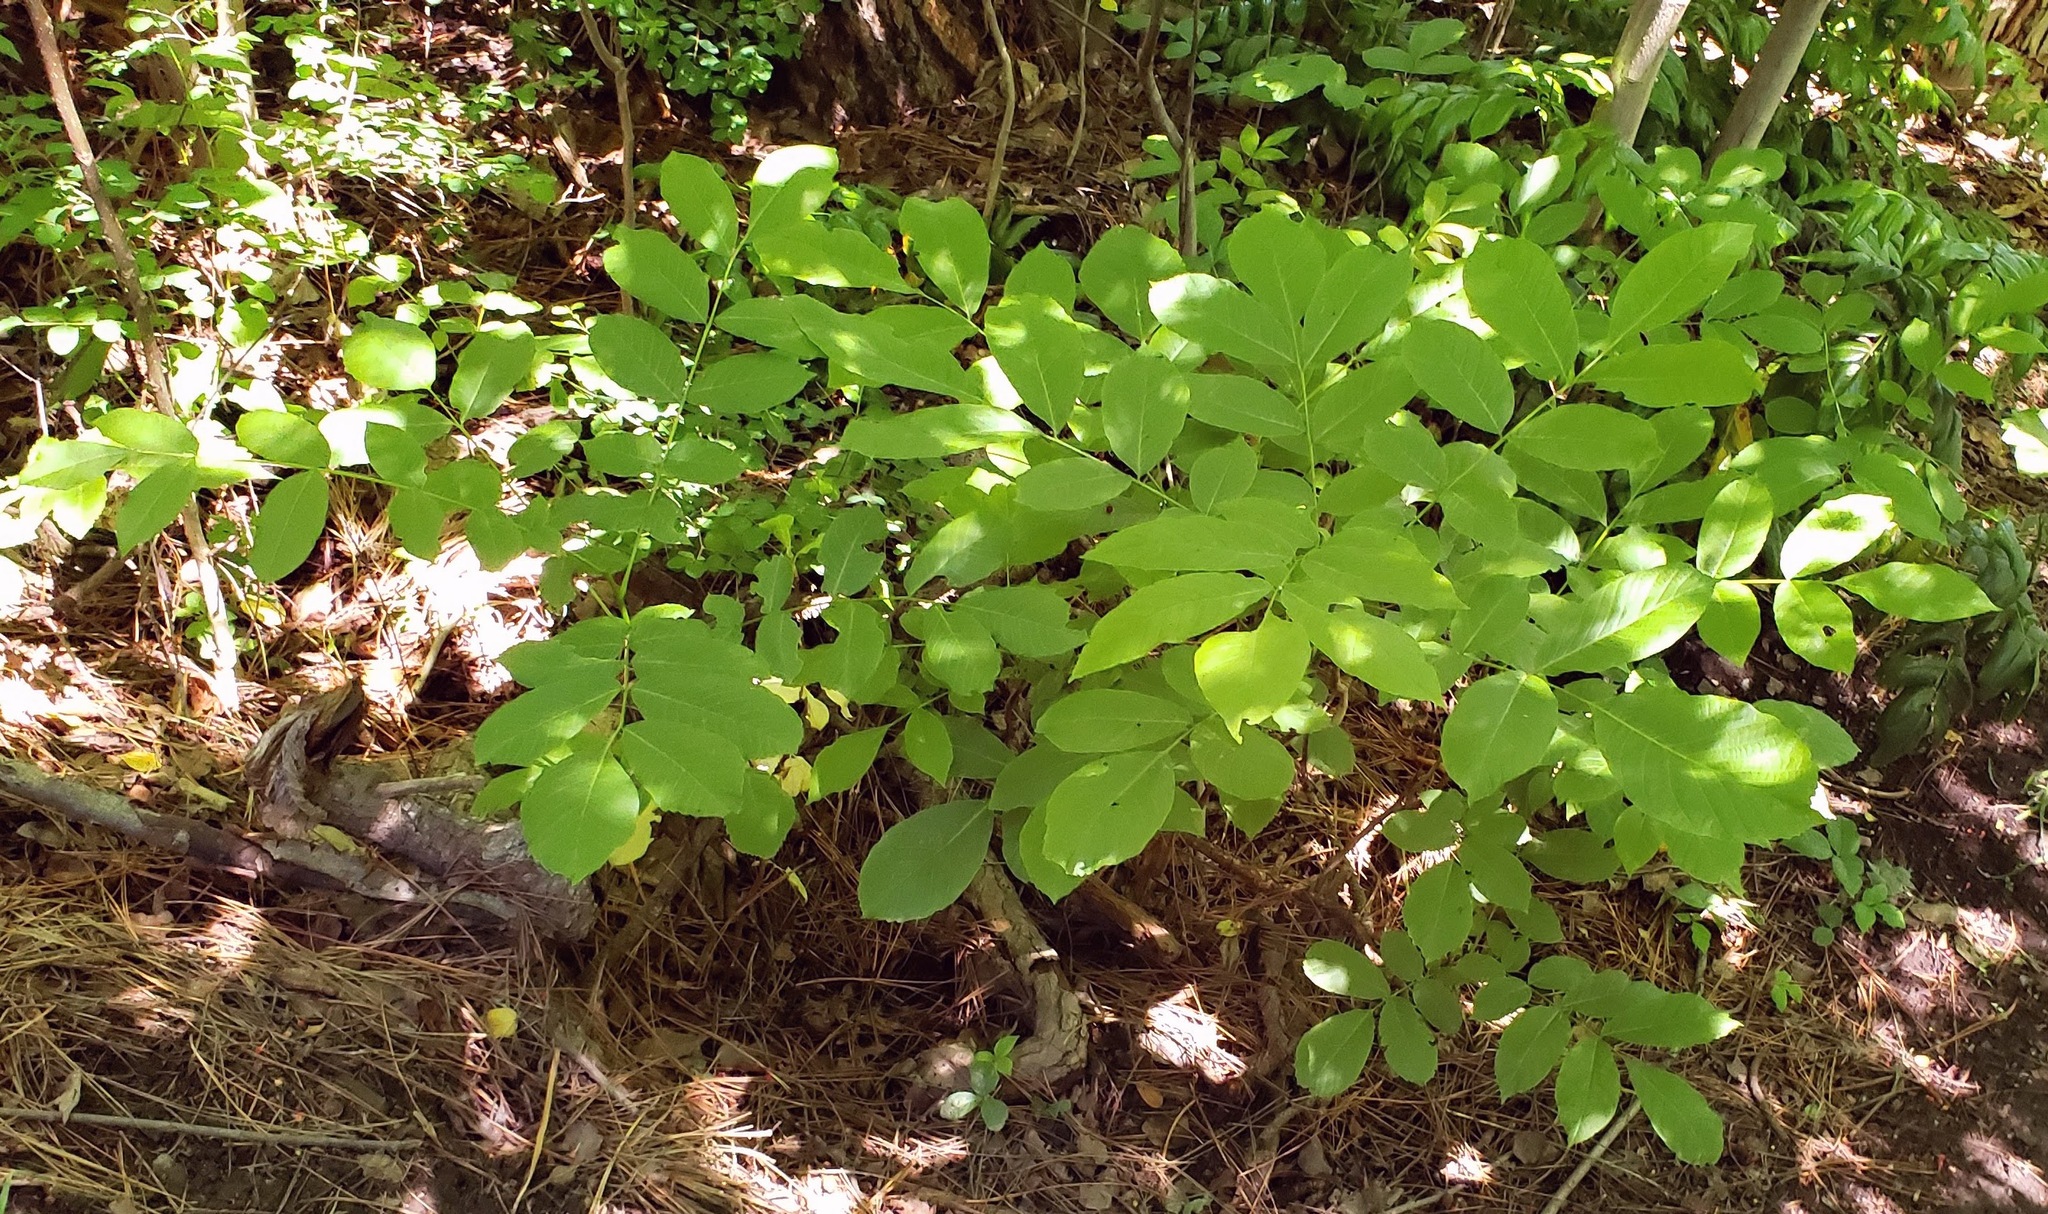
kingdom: Plantae
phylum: Tracheophyta
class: Magnoliopsida
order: Fagales
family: Juglandaceae
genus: Juglans
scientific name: Juglans regia
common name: Walnut
